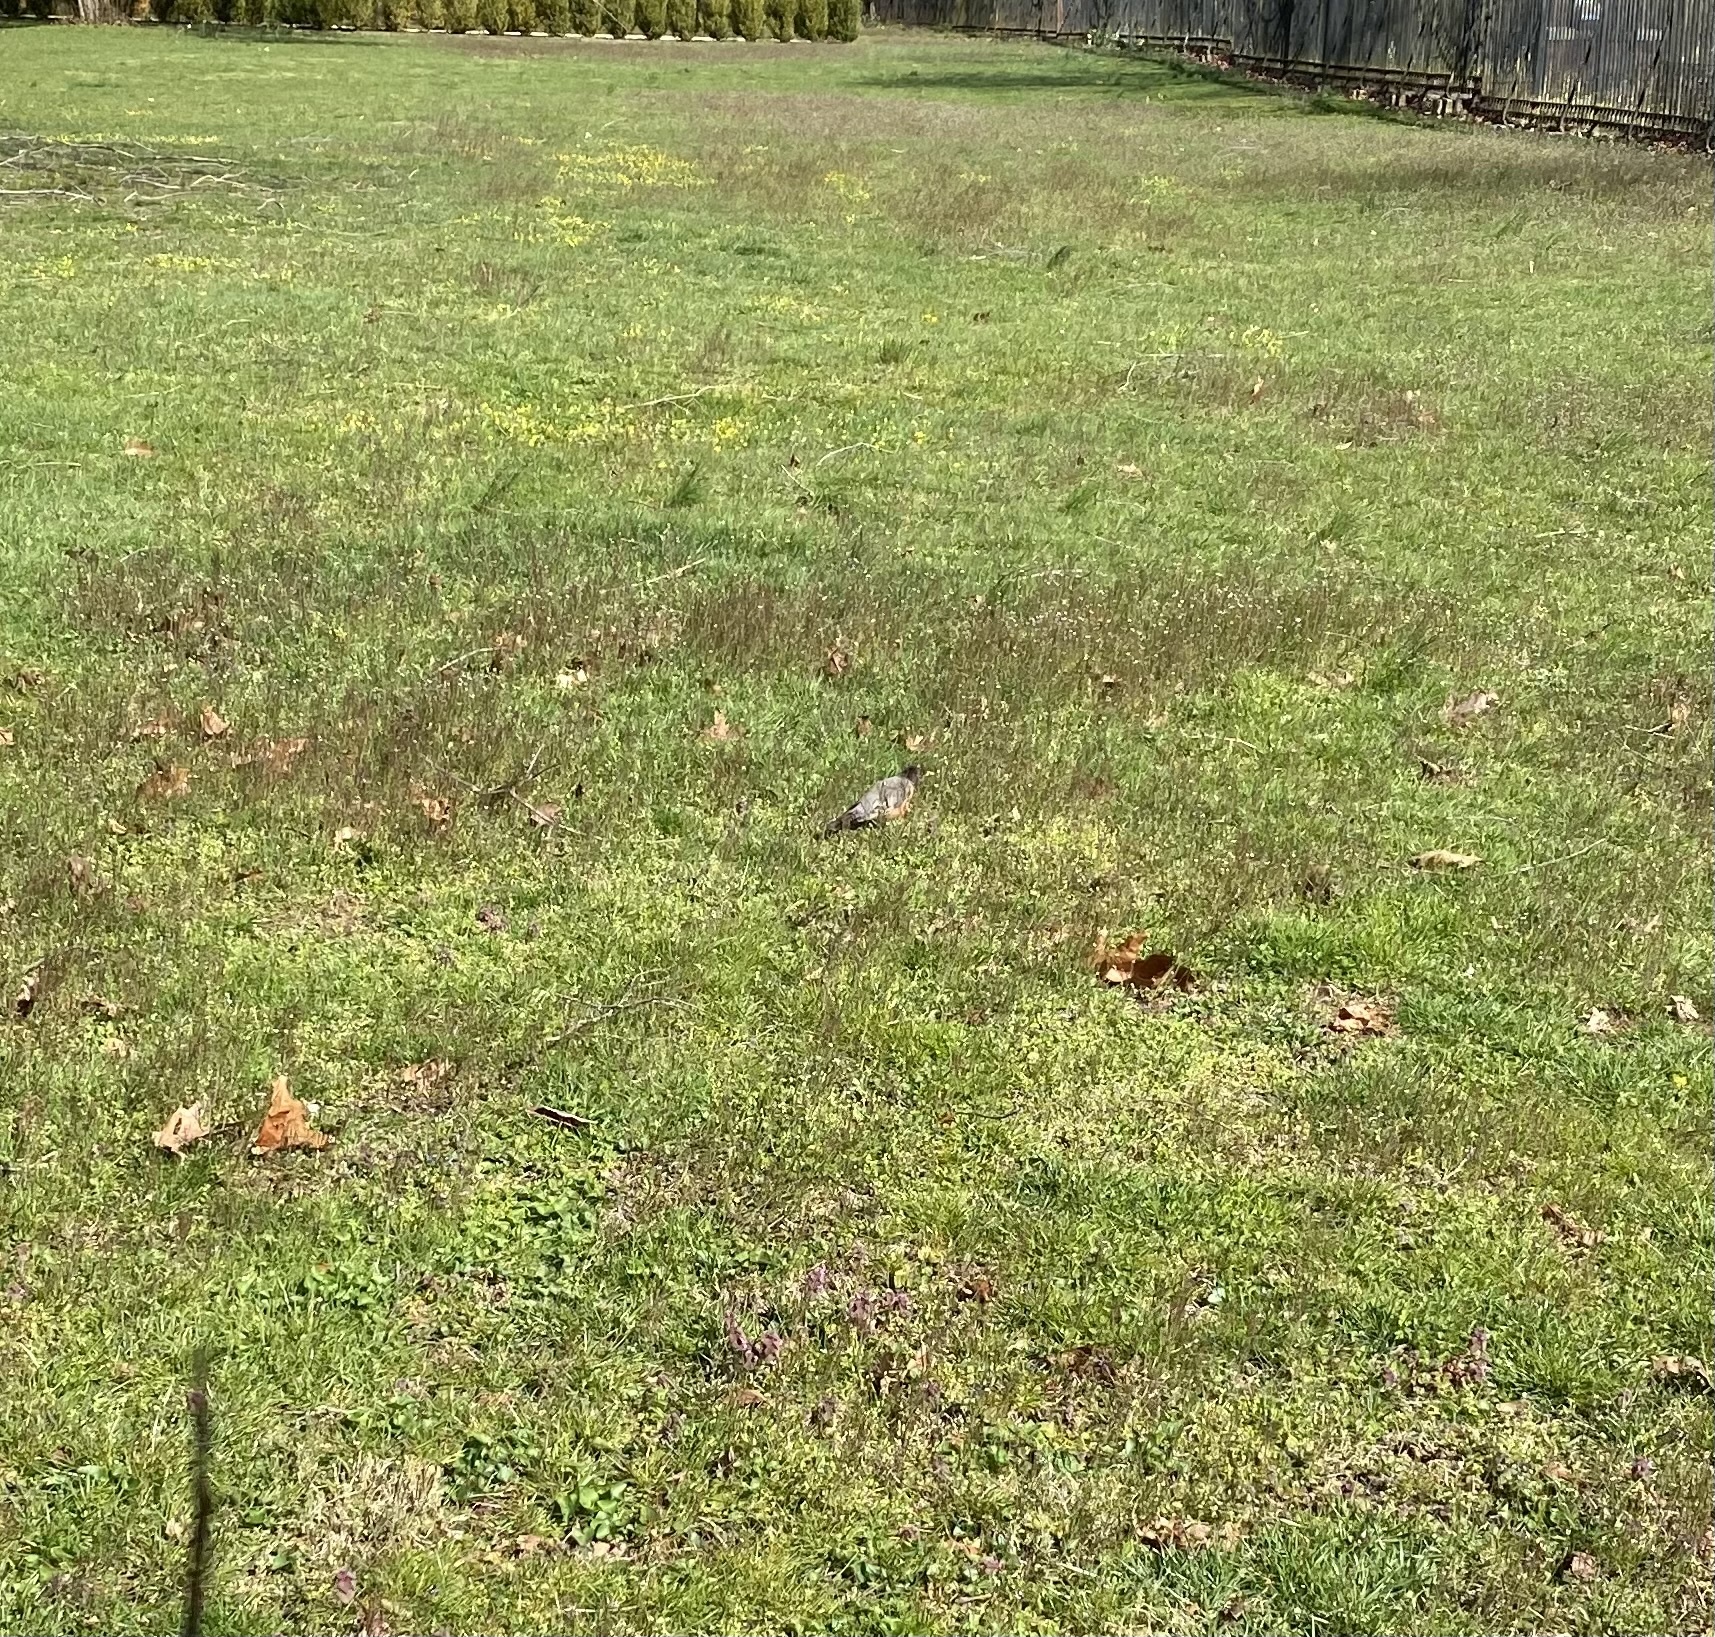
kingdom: Animalia
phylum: Chordata
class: Aves
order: Passeriformes
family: Turdidae
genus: Turdus
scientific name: Turdus migratorius
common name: American robin
